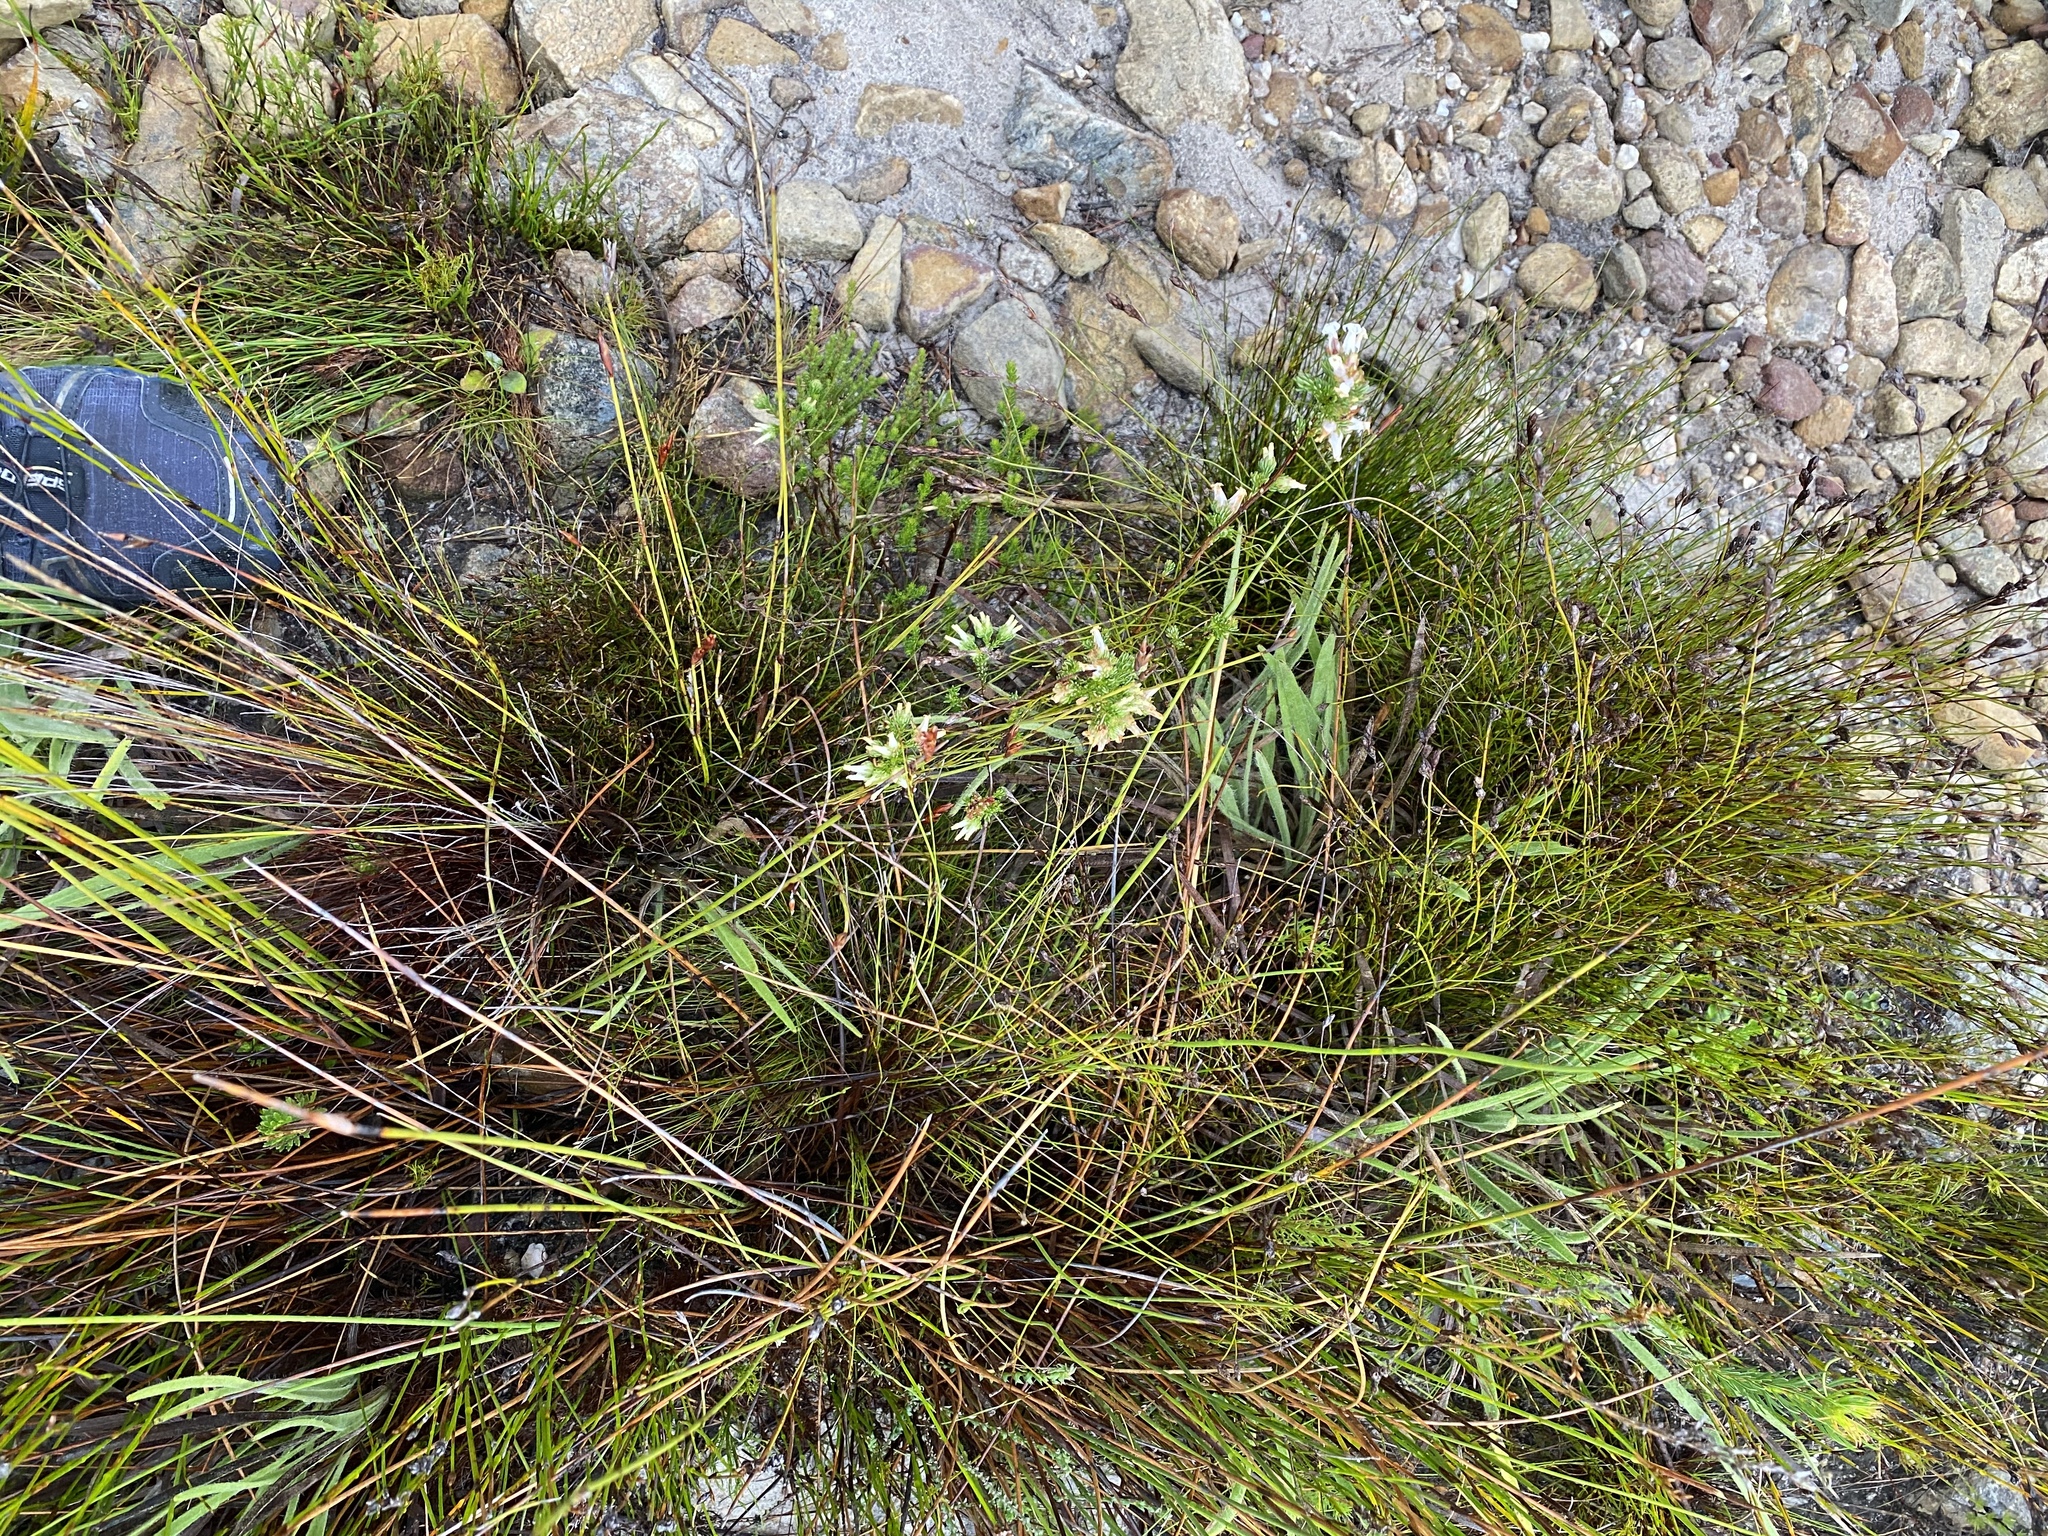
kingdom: Plantae
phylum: Tracheophyta
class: Magnoliopsida
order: Ericales
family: Ericaceae
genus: Erica
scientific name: Erica denticulata
